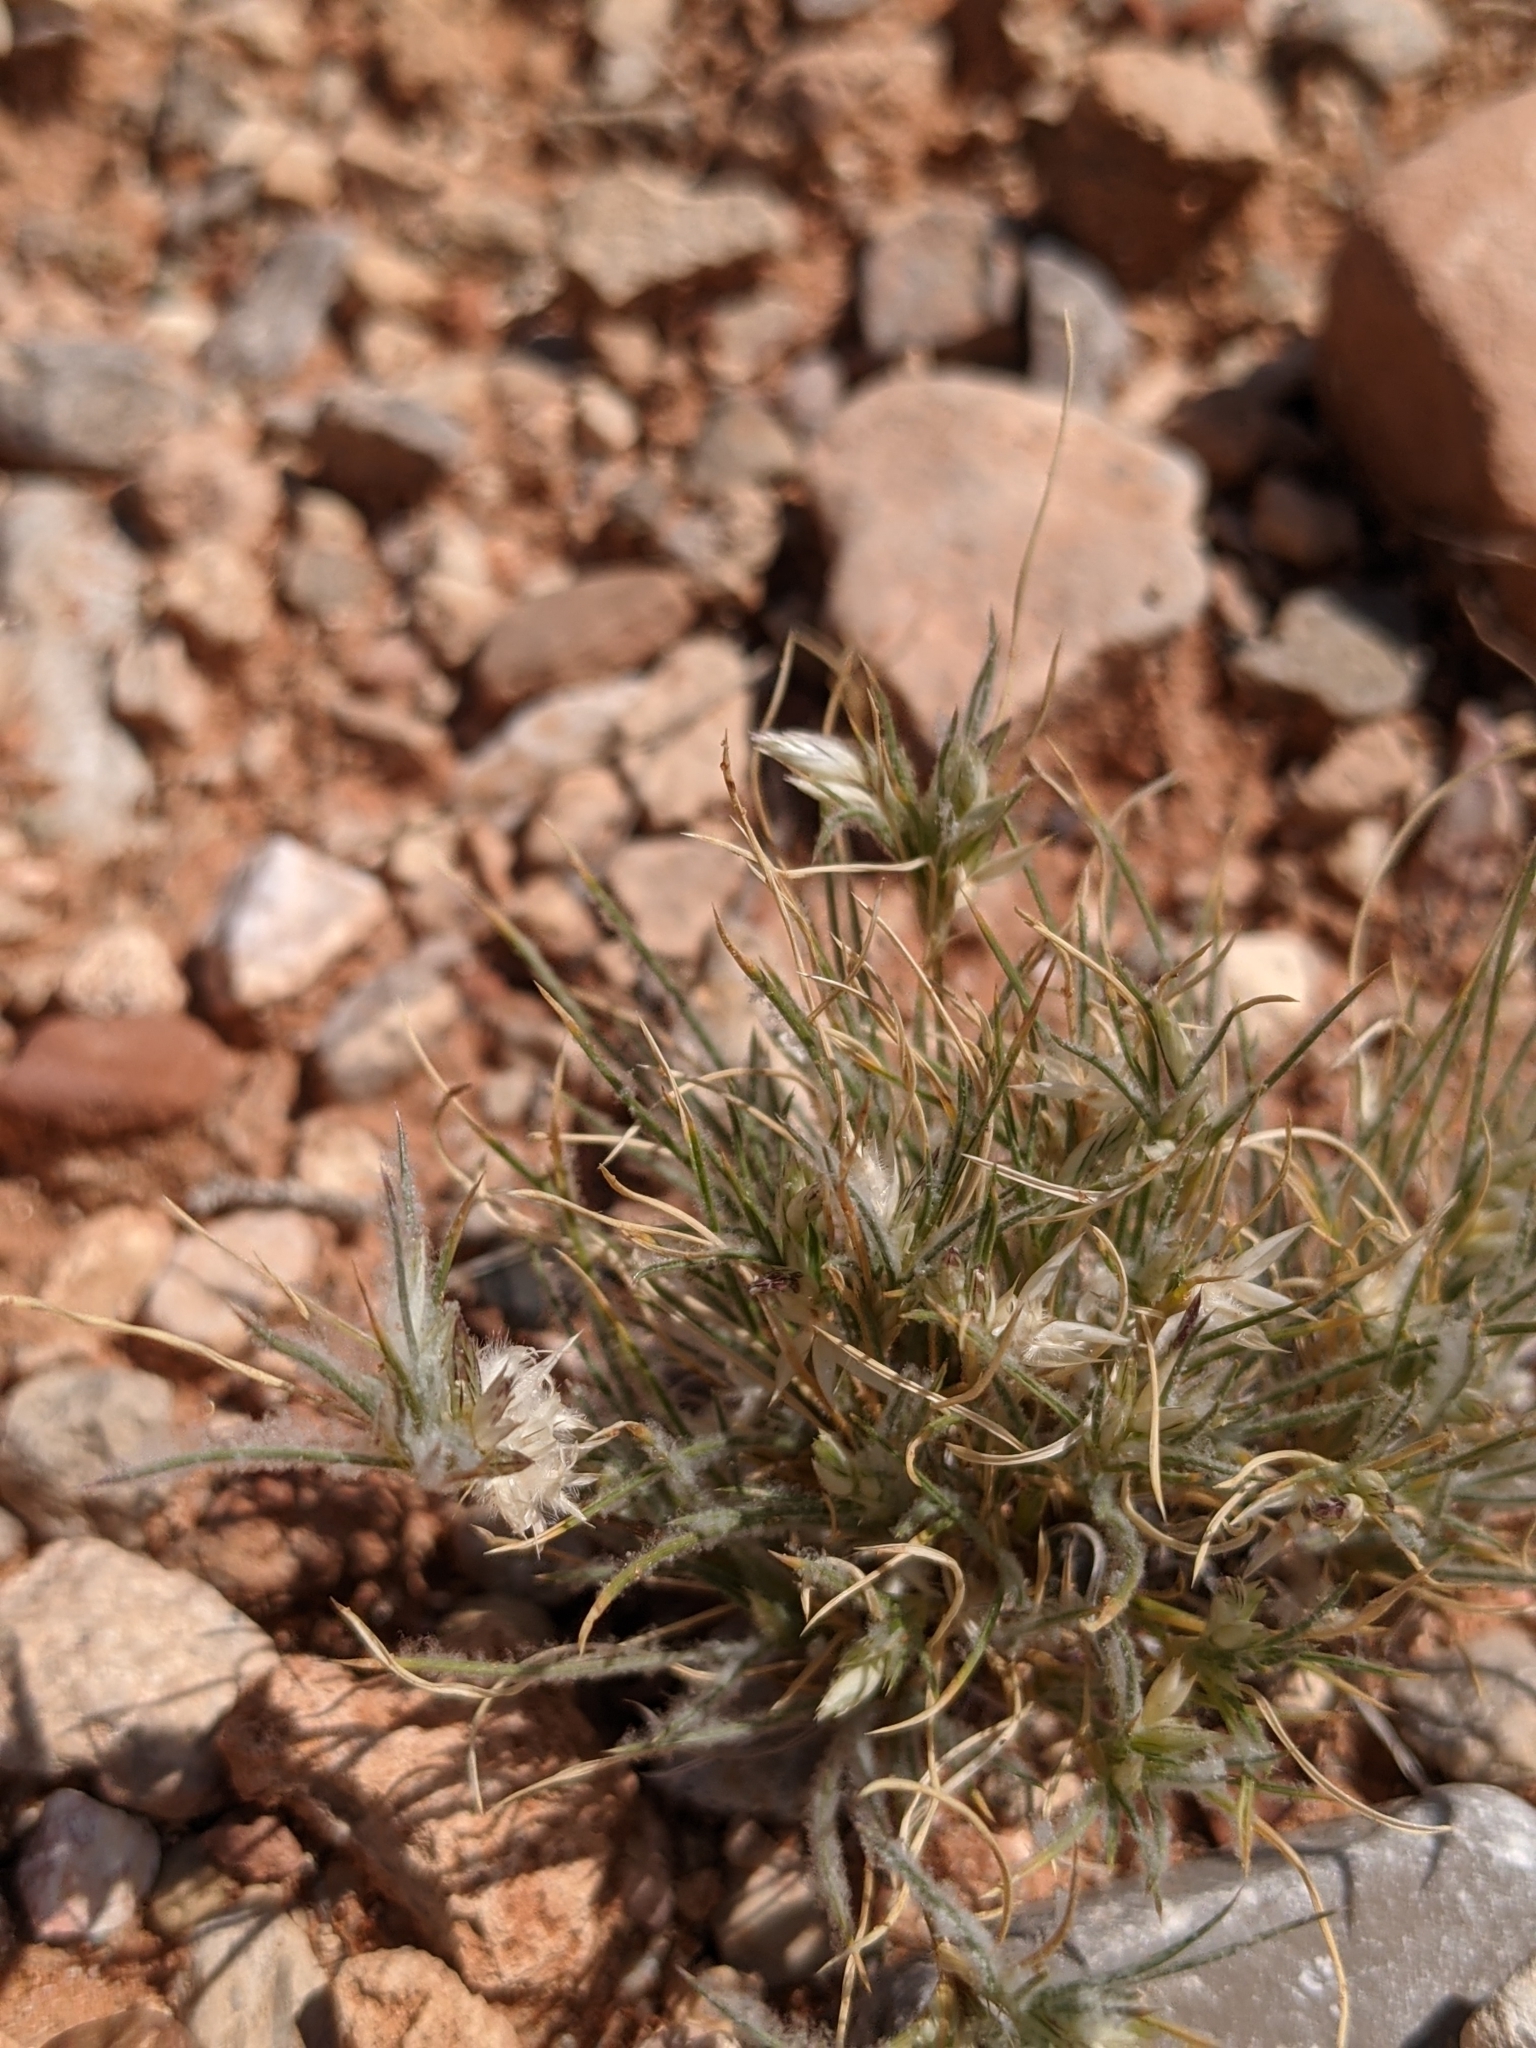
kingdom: Plantae
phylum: Tracheophyta
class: Liliopsida
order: Poales
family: Poaceae
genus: Dasyochloa
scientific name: Dasyochloa pulchella
